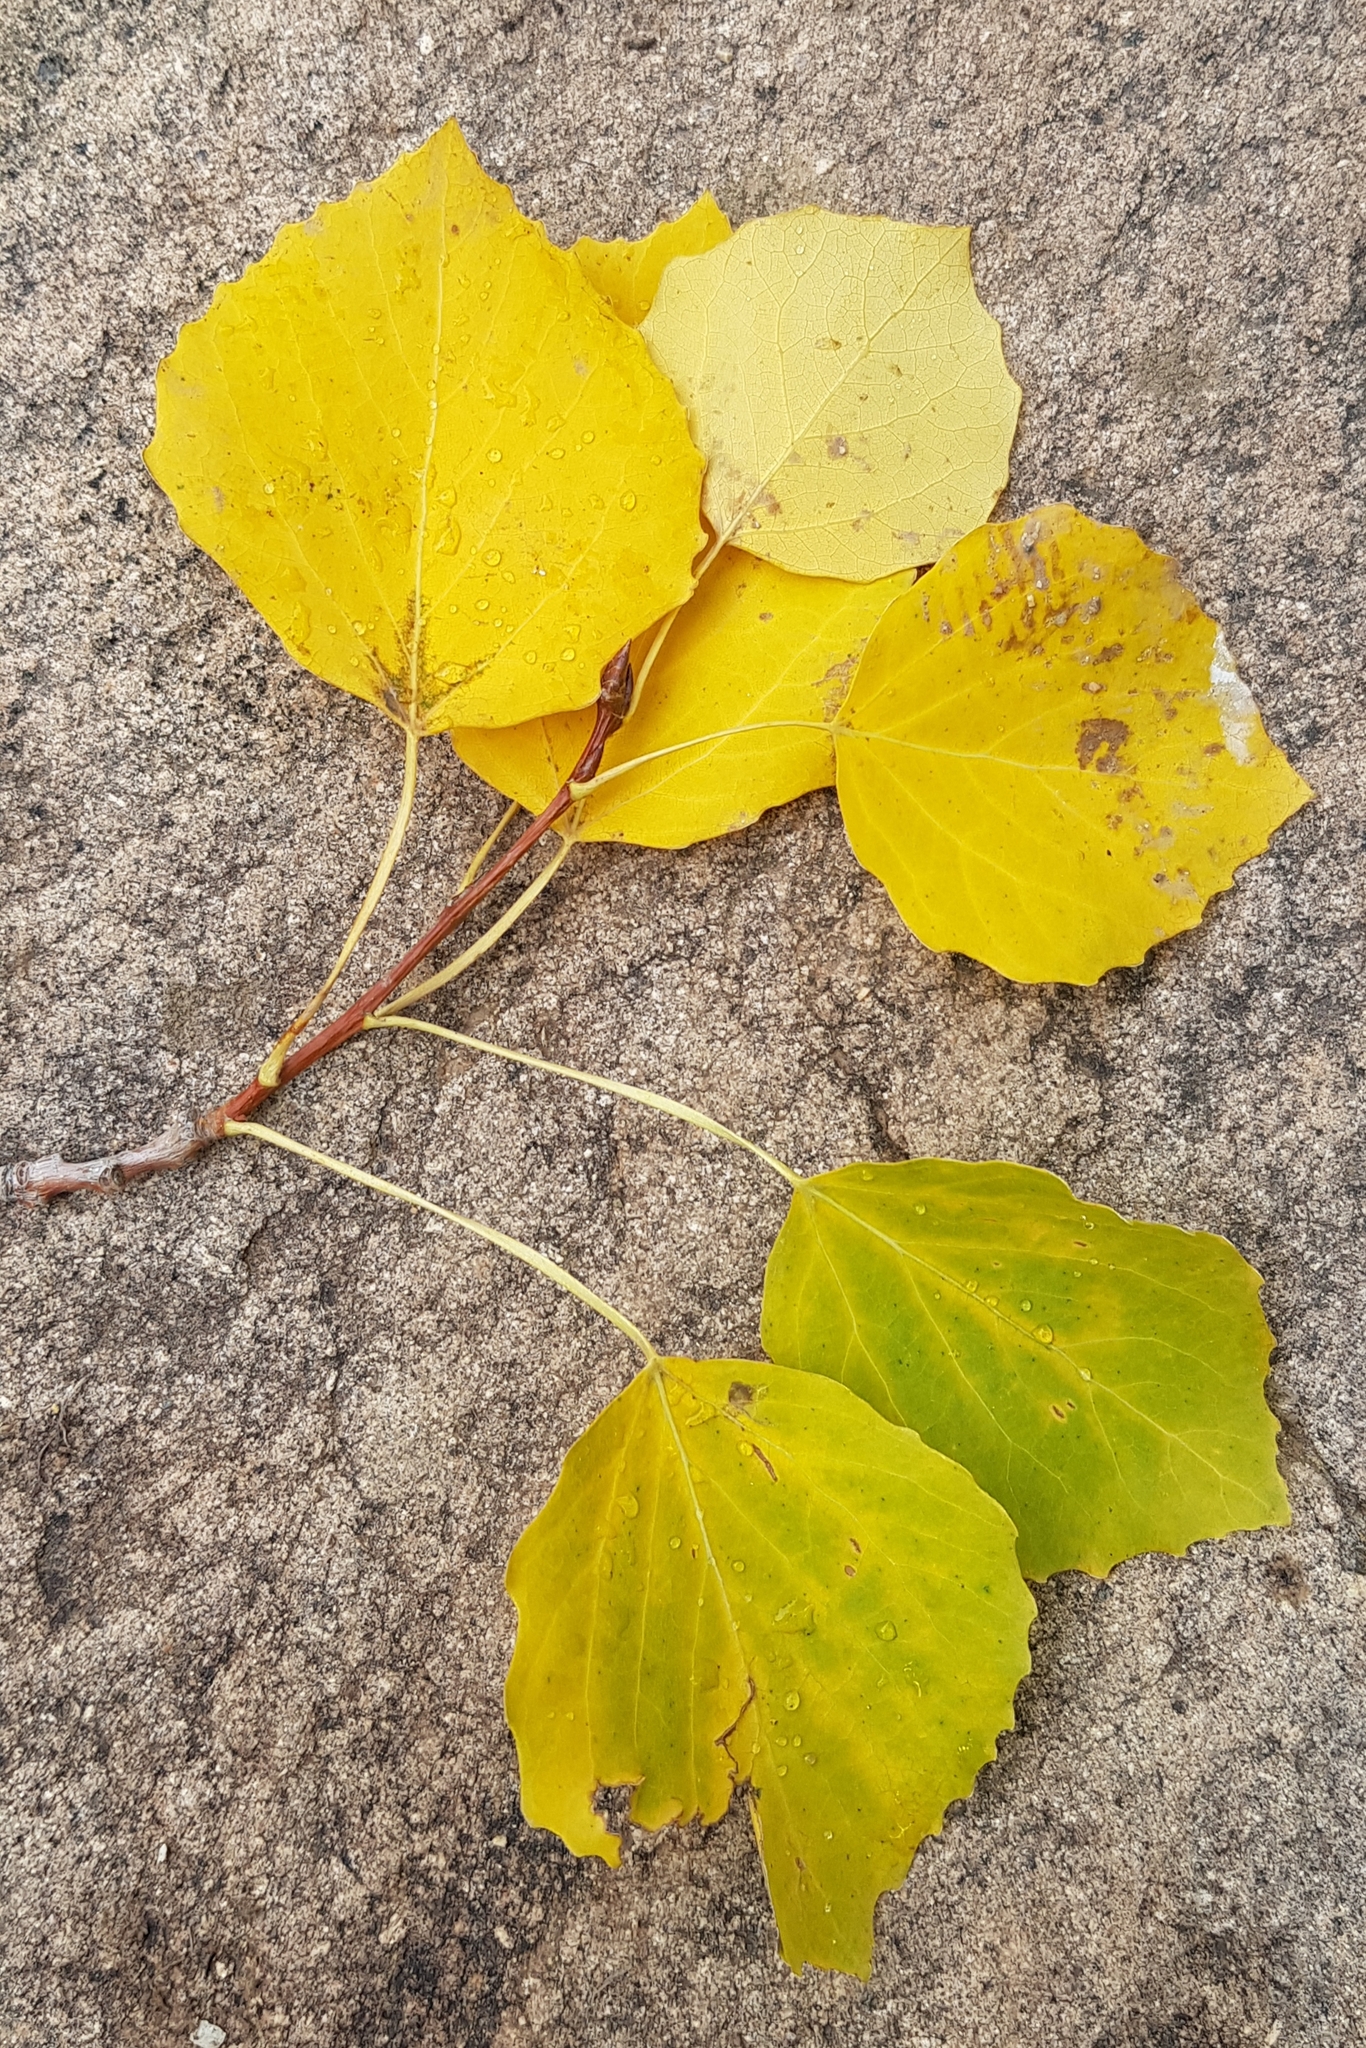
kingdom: Plantae
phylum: Tracheophyta
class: Magnoliopsida
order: Malpighiales
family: Salicaceae
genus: Populus
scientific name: Populus tremula
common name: European aspen
